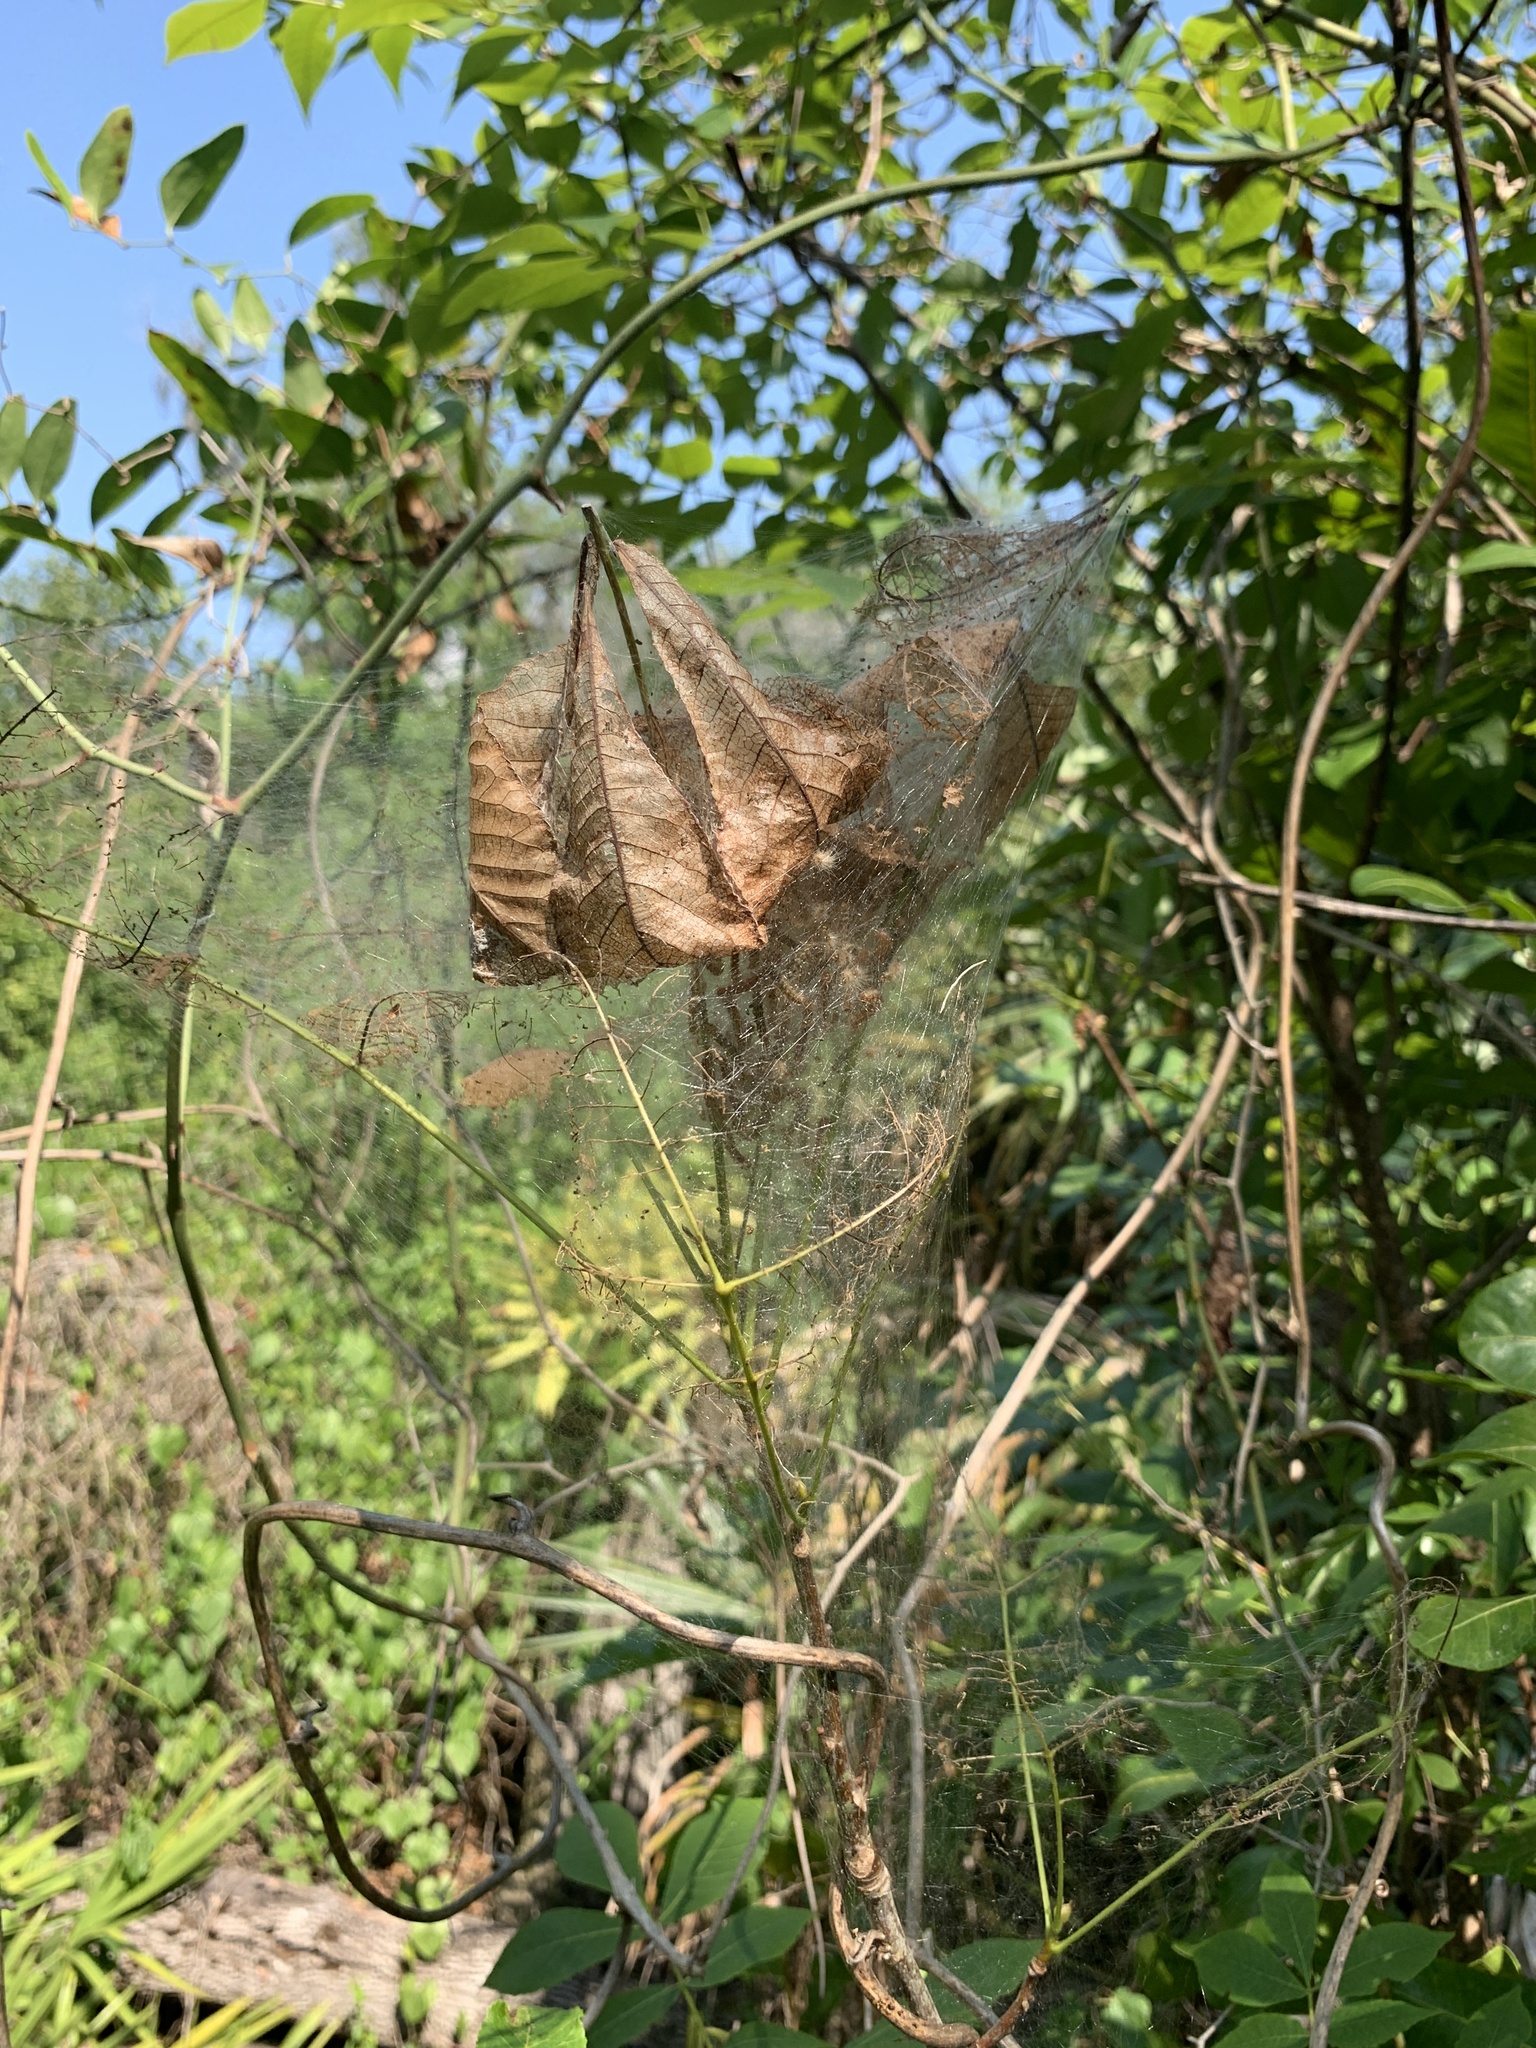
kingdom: Animalia
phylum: Arthropoda
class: Insecta
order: Lepidoptera
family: Erebidae
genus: Hyphantria
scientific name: Hyphantria cunea
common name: American white moth
